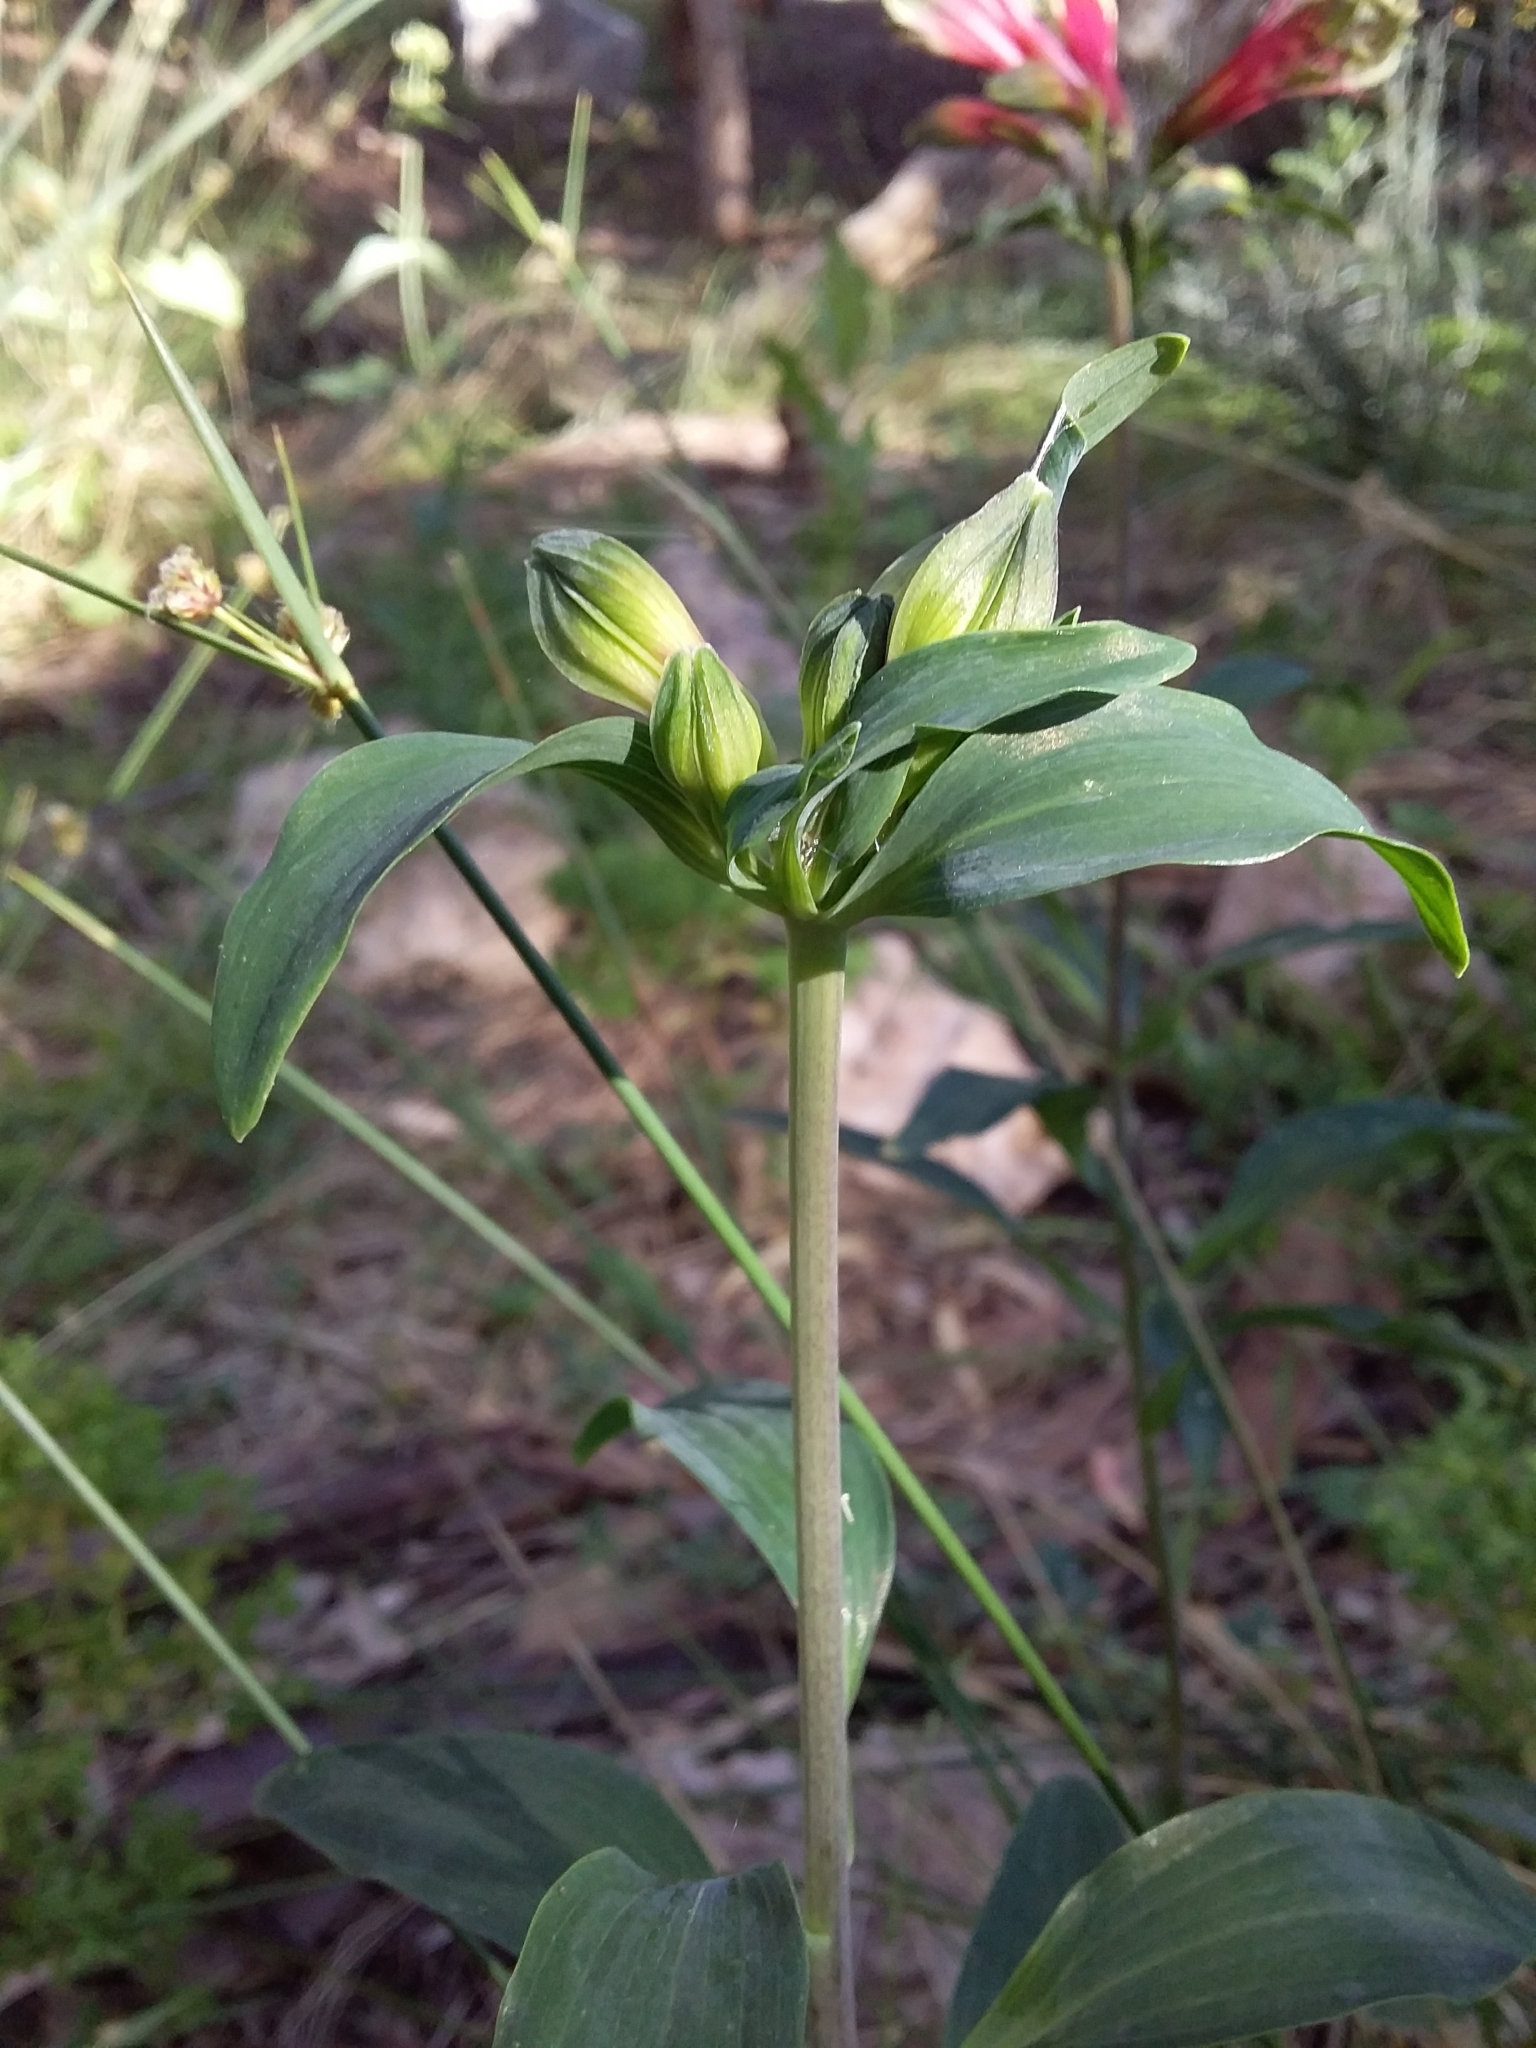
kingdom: Plantae
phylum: Tracheophyta
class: Liliopsida
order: Liliales
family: Alstroemeriaceae
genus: Alstroemeria
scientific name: Alstroemeria psittacina
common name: Peruvian-lily
